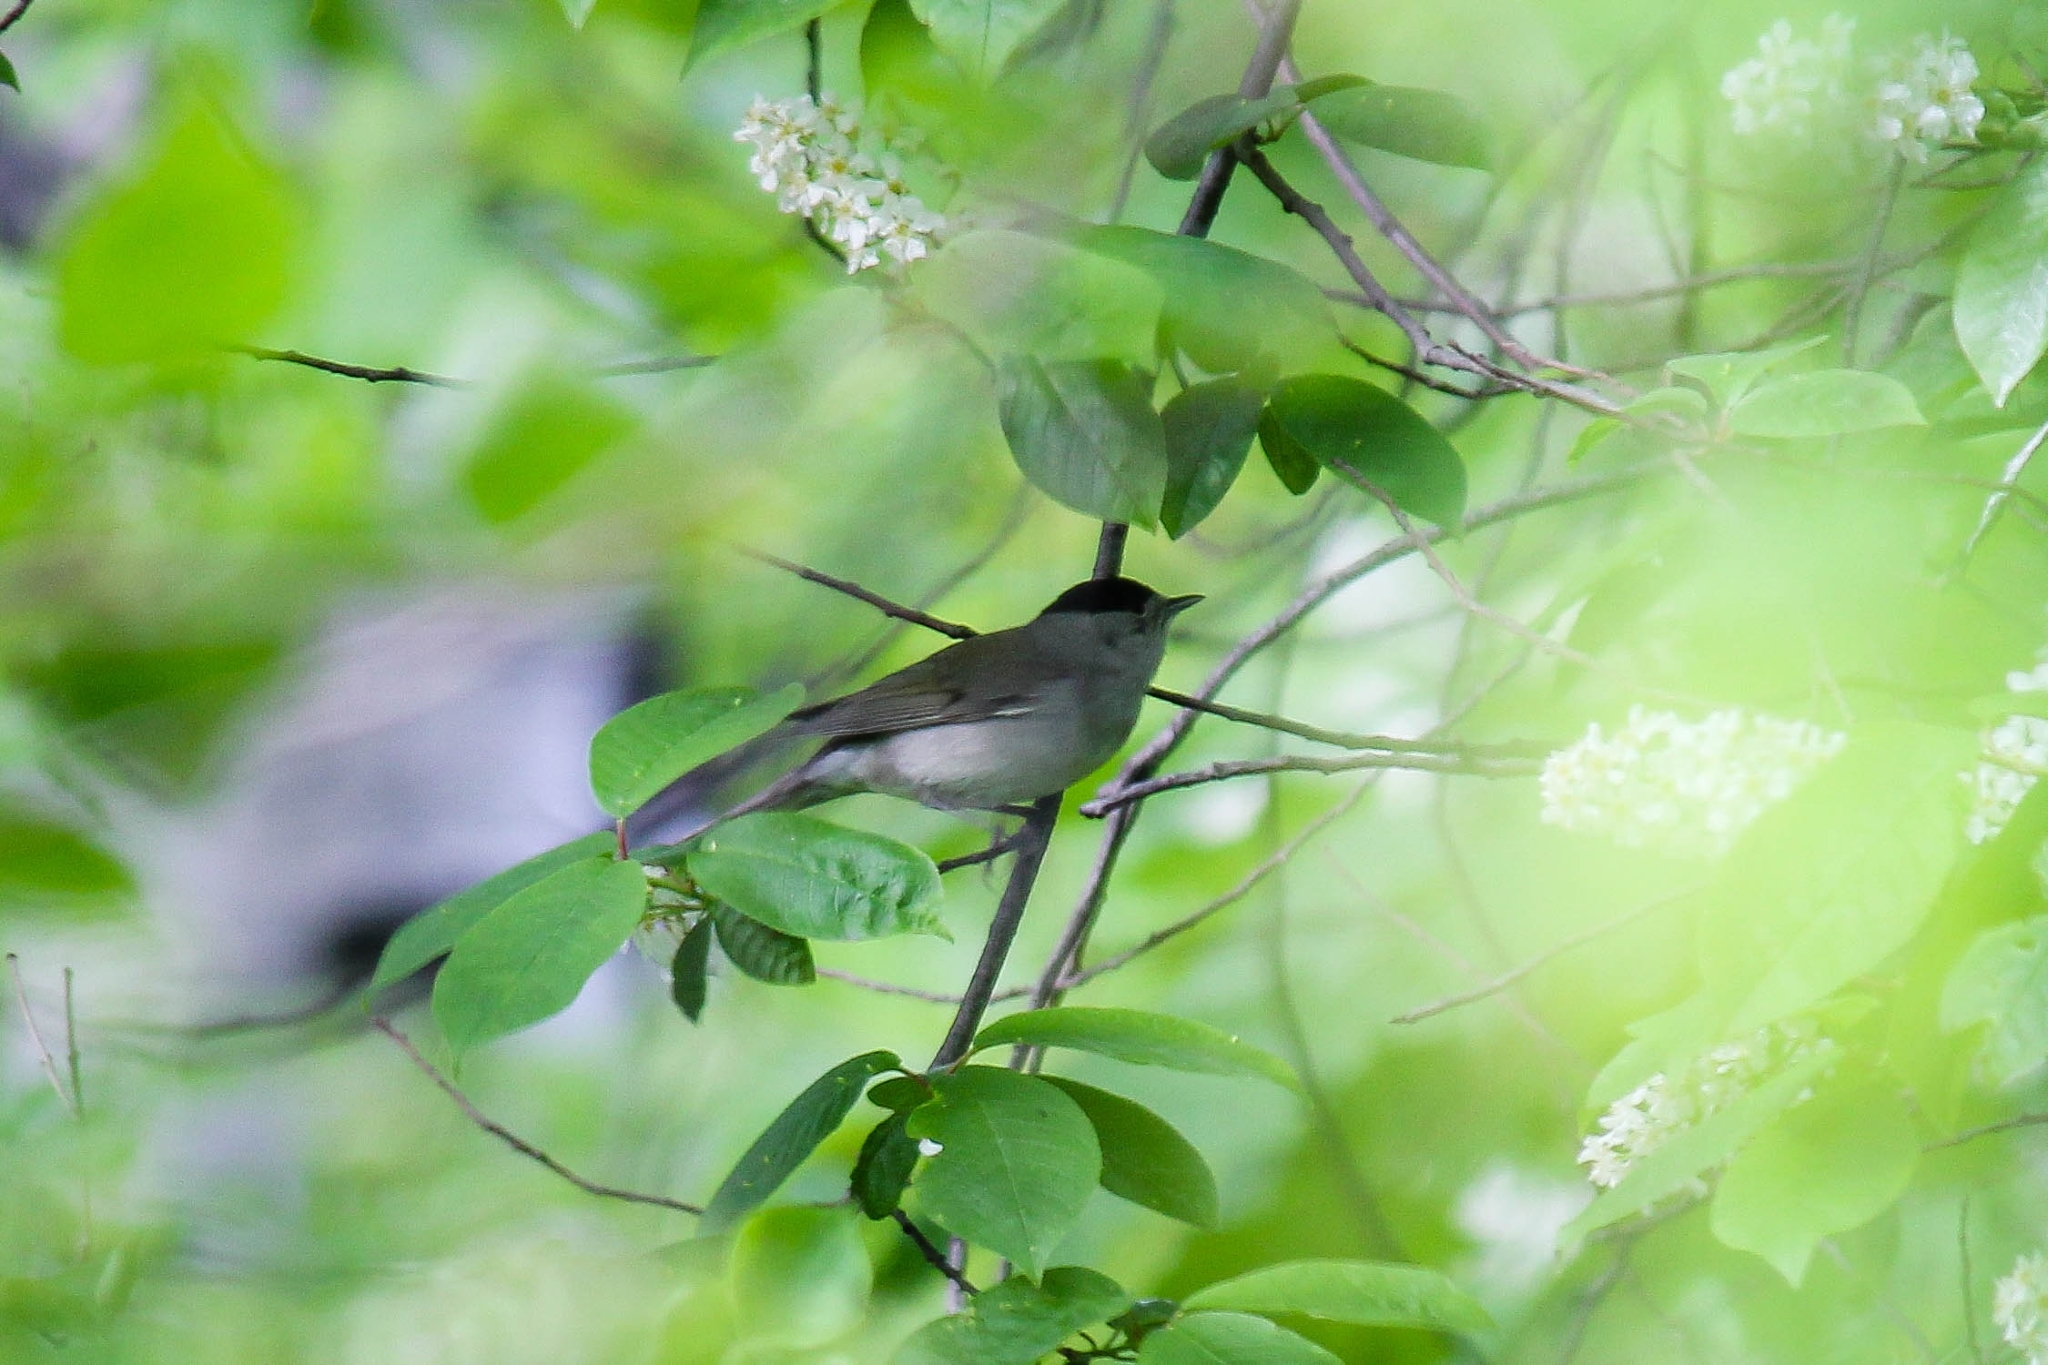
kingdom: Animalia
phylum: Chordata
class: Aves
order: Passeriformes
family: Sylviidae
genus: Sylvia
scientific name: Sylvia atricapilla
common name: Eurasian blackcap
